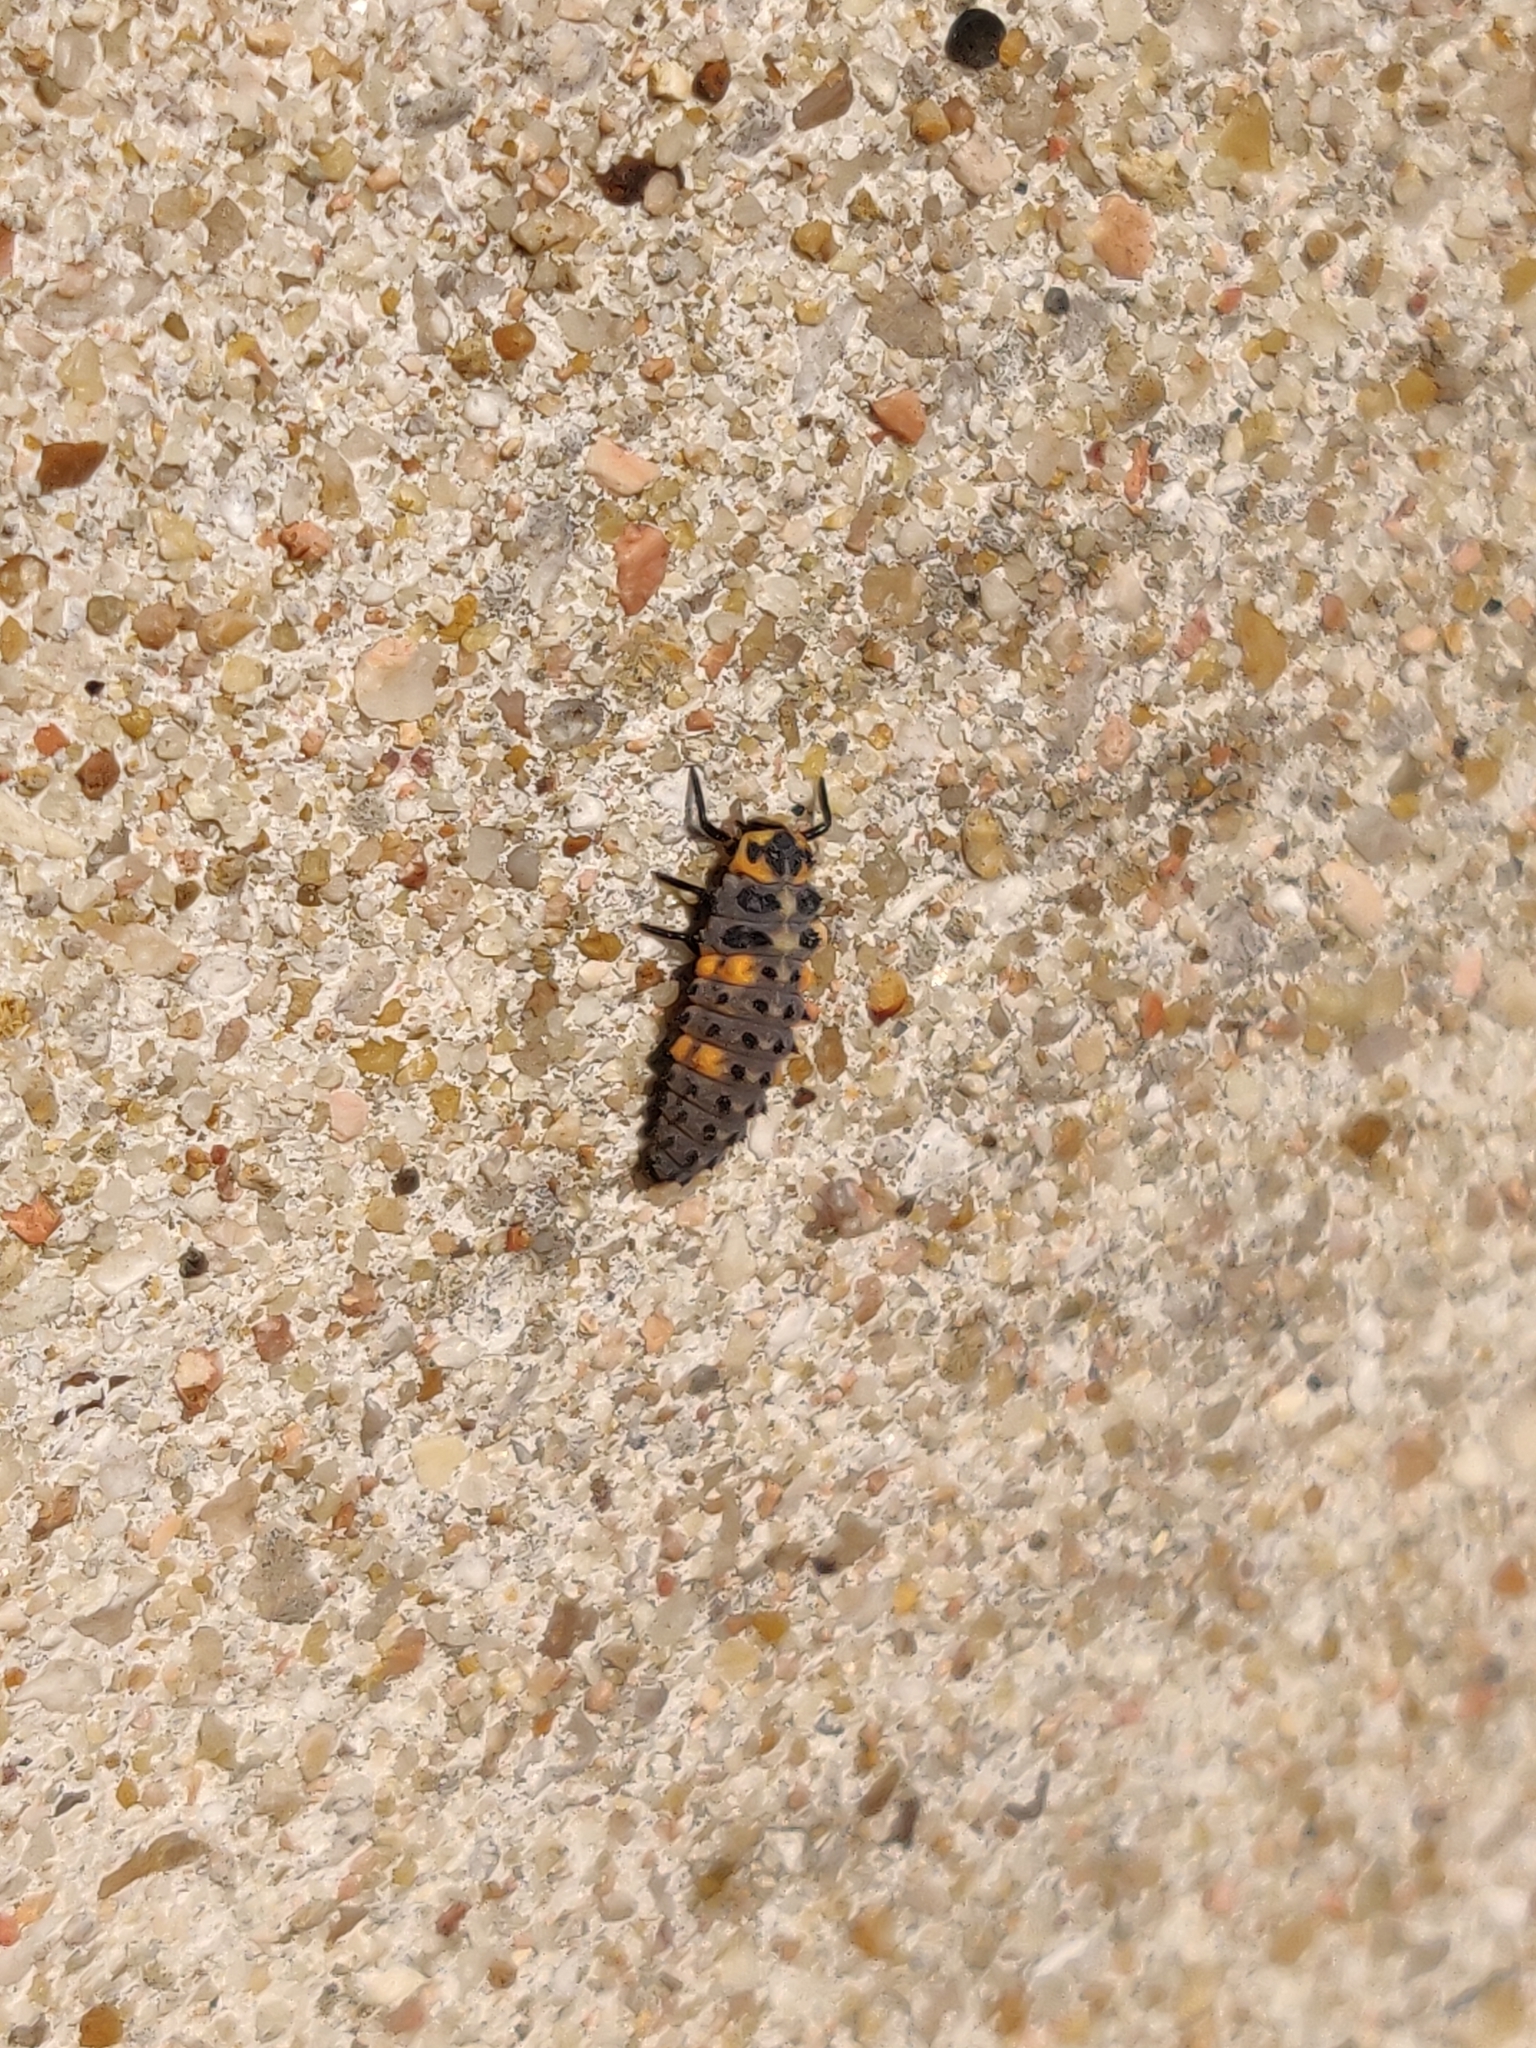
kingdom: Animalia
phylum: Arthropoda
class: Insecta
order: Coleoptera
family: Coccinellidae
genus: Coccinella
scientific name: Coccinella septempunctata
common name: Sevenspotted lady beetle
